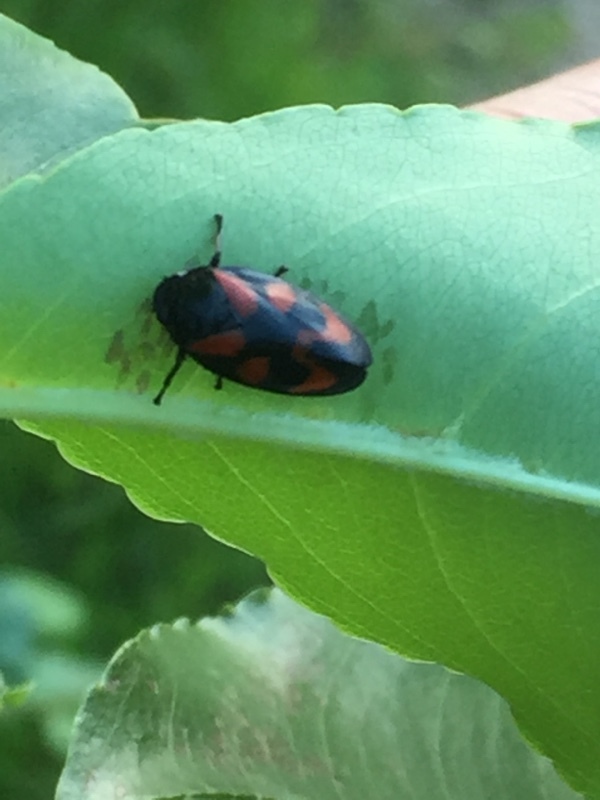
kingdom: Animalia
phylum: Arthropoda
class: Insecta
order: Hemiptera
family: Cercopidae
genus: Cercopis
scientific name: Cercopis vulnerata
